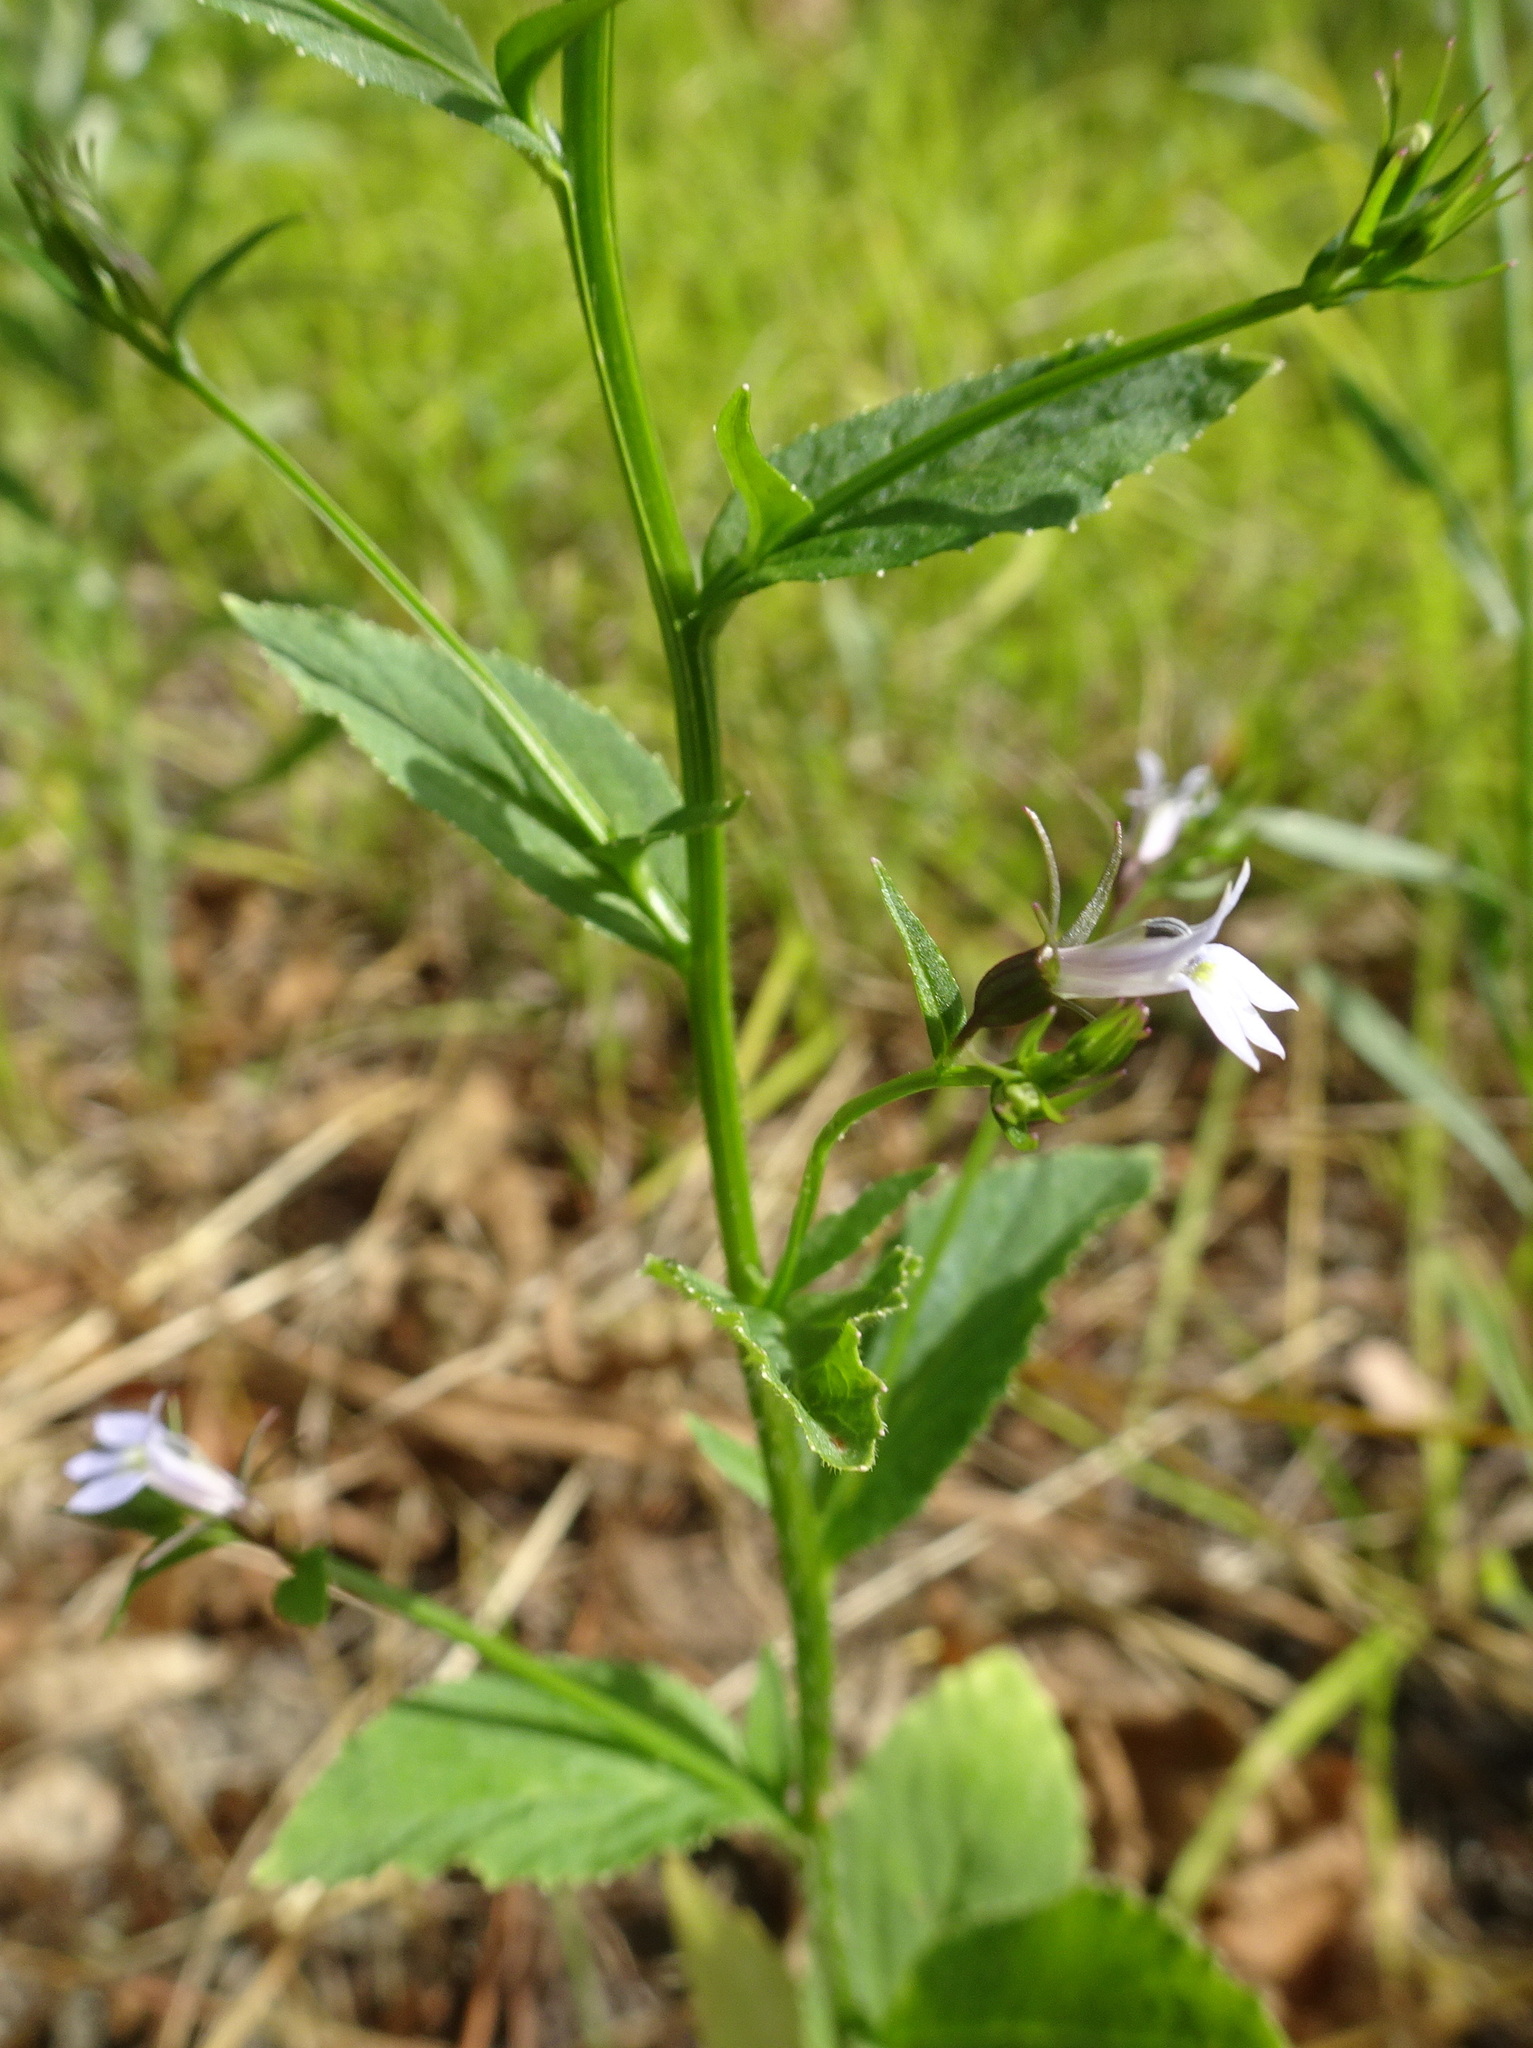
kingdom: Plantae
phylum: Tracheophyta
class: Magnoliopsida
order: Asterales
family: Campanulaceae
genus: Lobelia
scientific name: Lobelia inflata
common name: Indian tobacco
